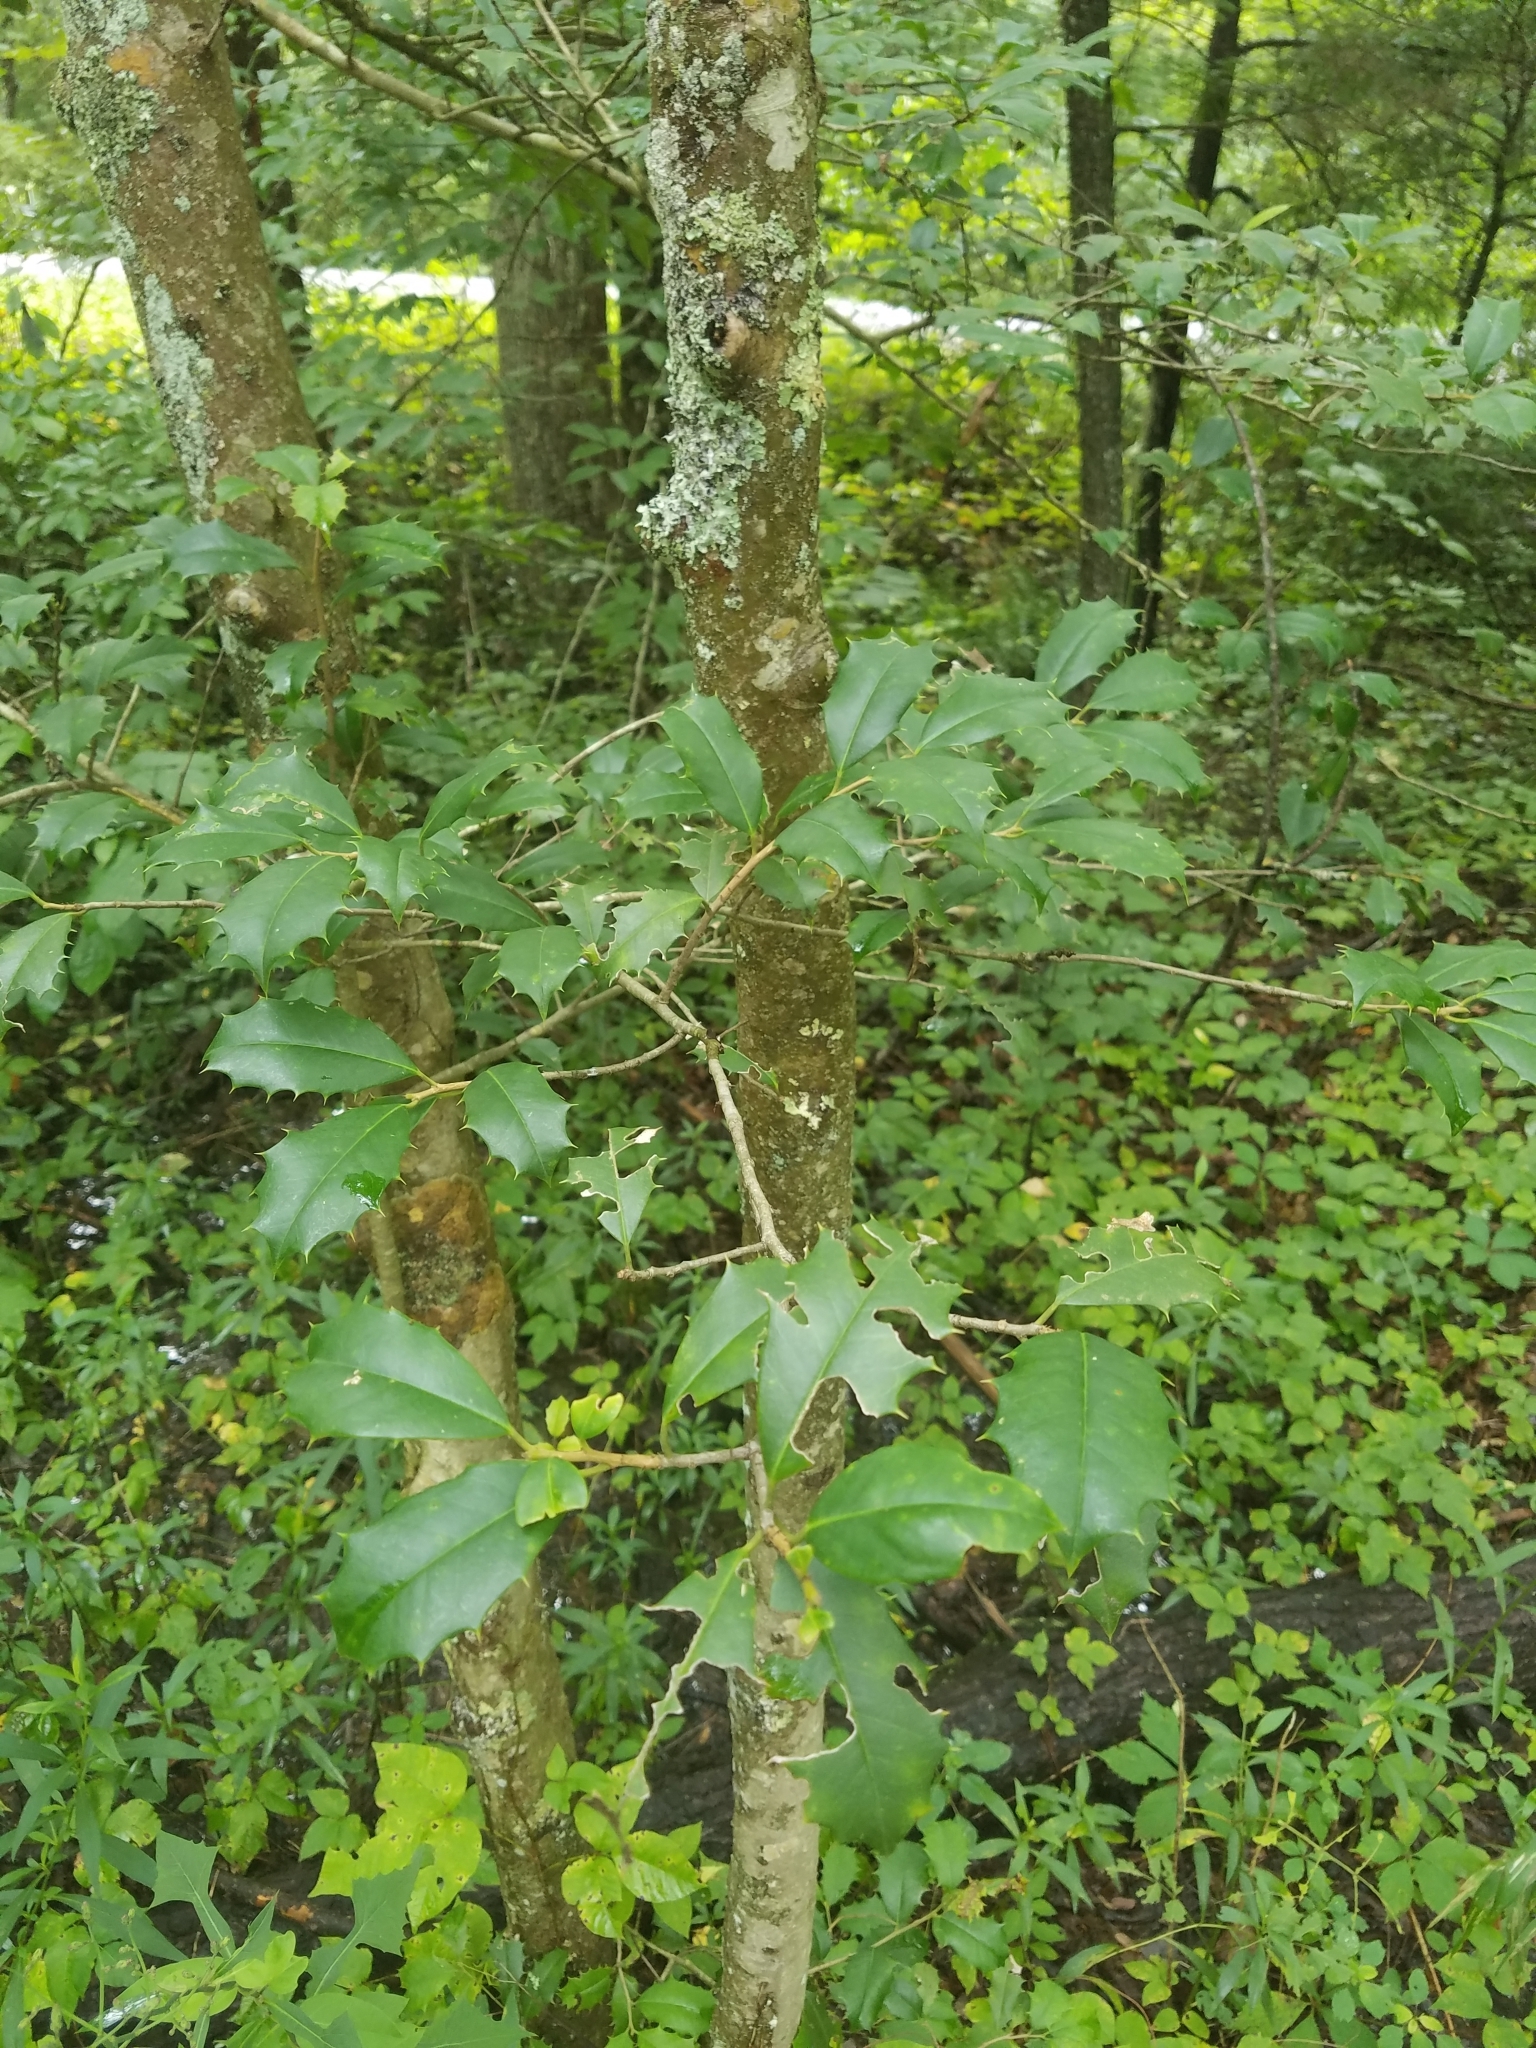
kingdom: Plantae
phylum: Tracheophyta
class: Magnoliopsida
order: Aquifoliales
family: Aquifoliaceae
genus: Ilex
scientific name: Ilex opaca
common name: American holly
